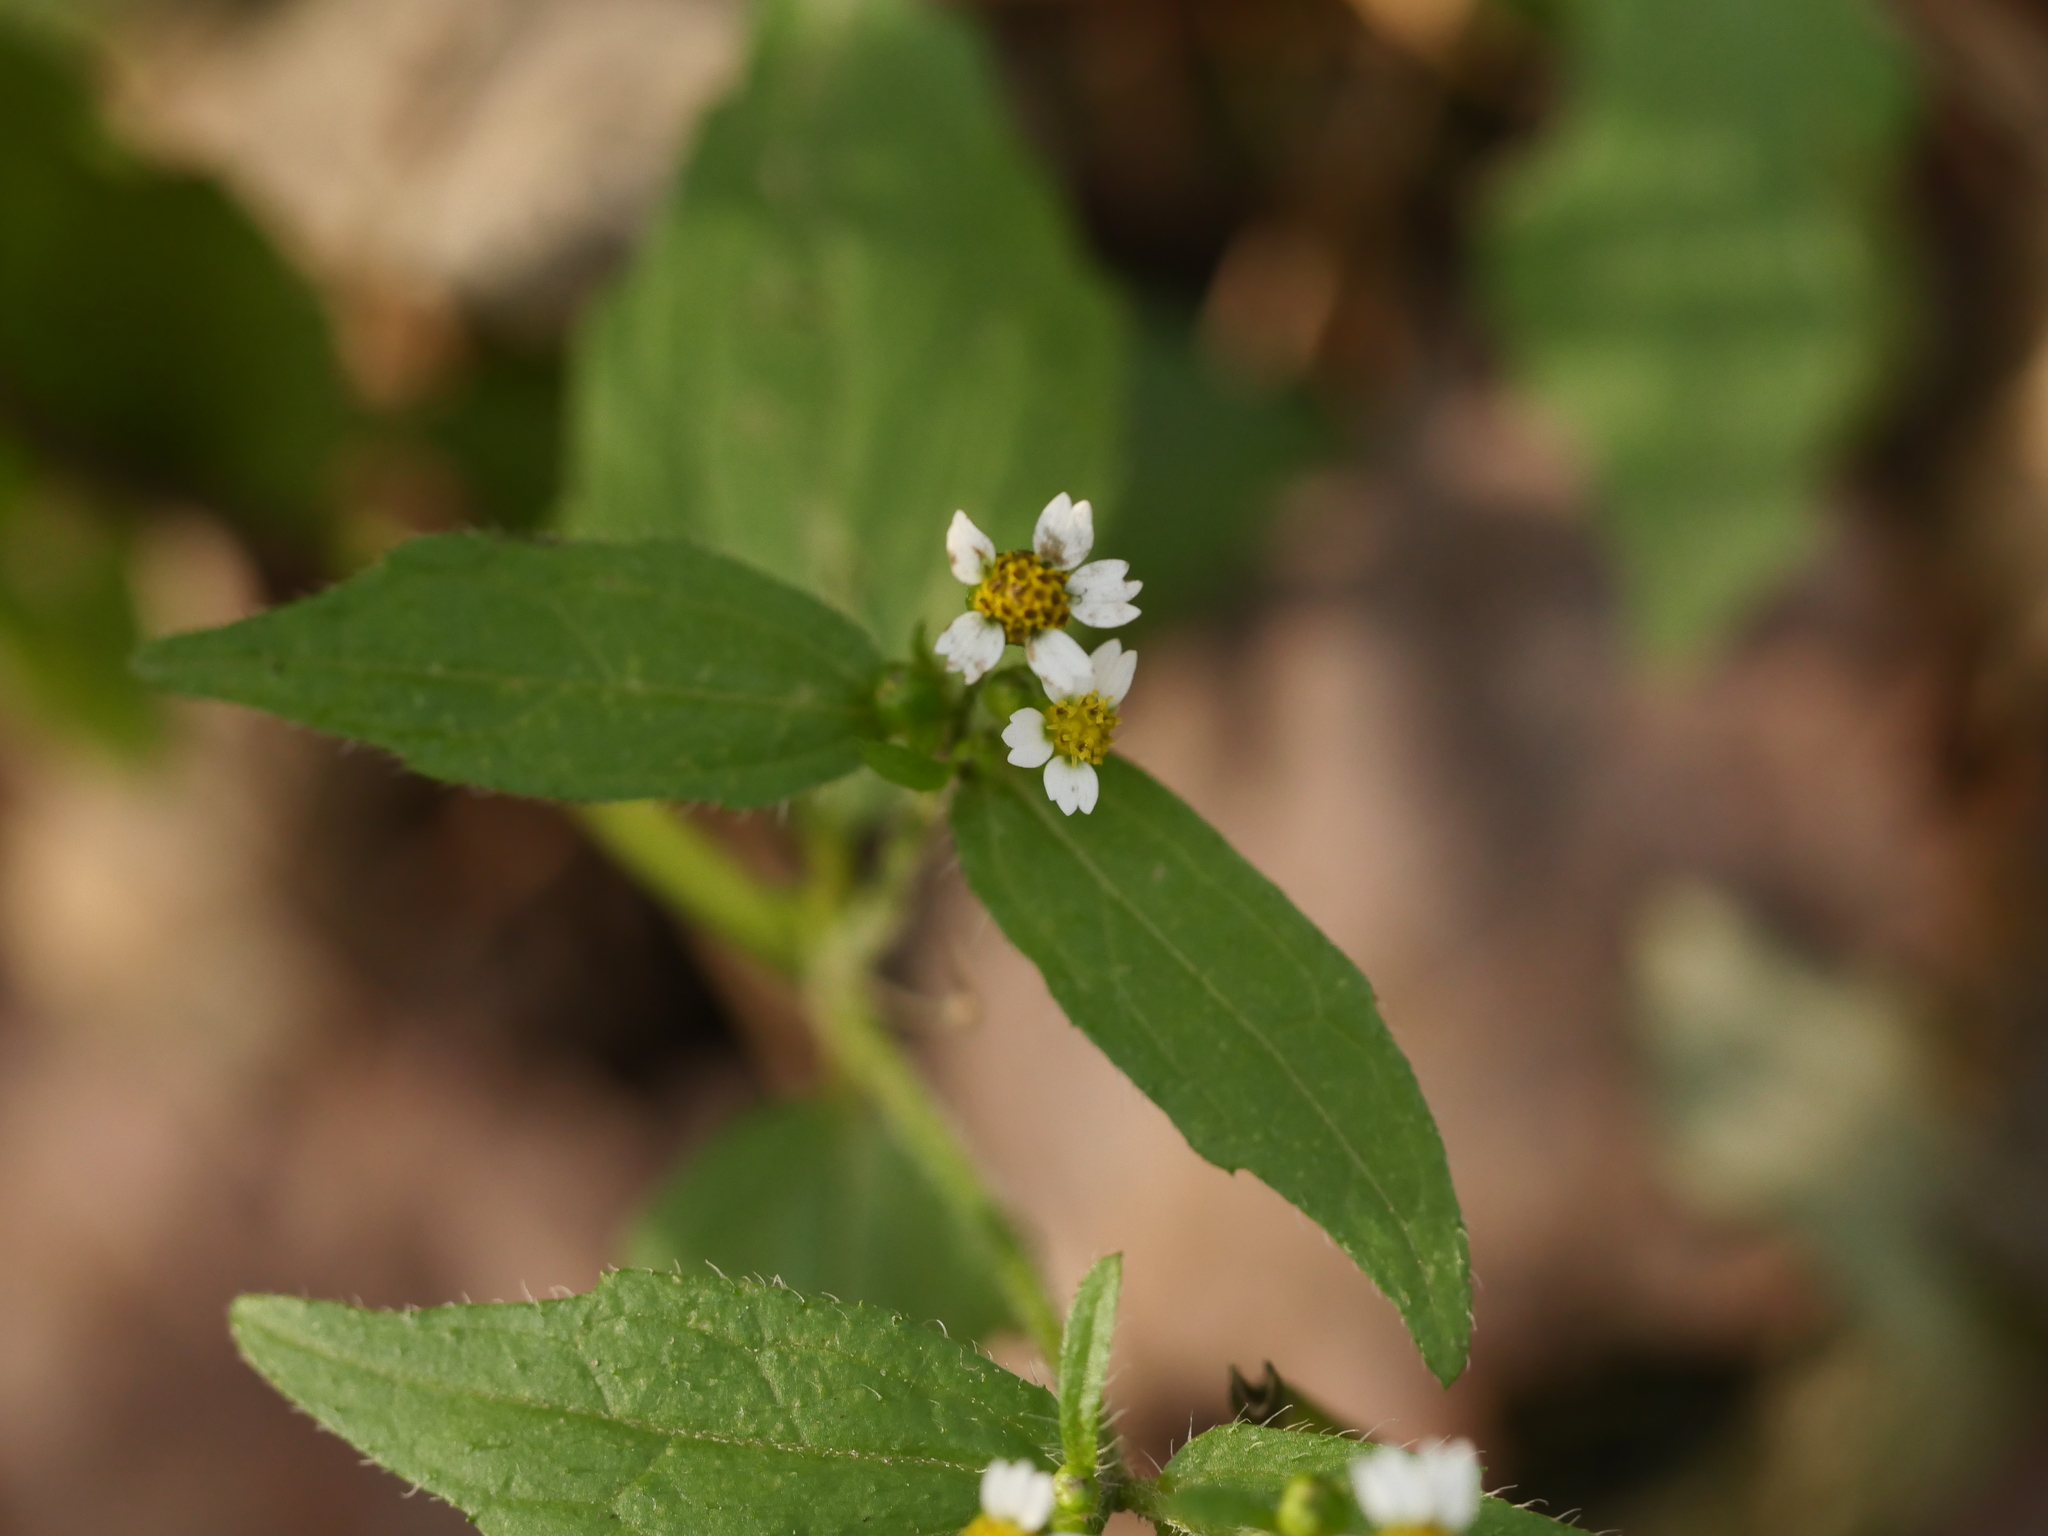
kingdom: Plantae
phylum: Tracheophyta
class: Magnoliopsida
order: Asterales
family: Asteraceae
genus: Galinsoga
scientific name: Galinsoga quadriradiata
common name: Shaggy soldier
